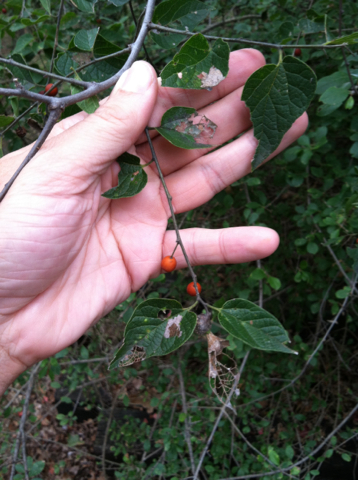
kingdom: Plantae
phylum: Tracheophyta
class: Magnoliopsida
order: Rosales
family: Cannabaceae
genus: Celtis
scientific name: Celtis laevigata
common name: Sugarberry
